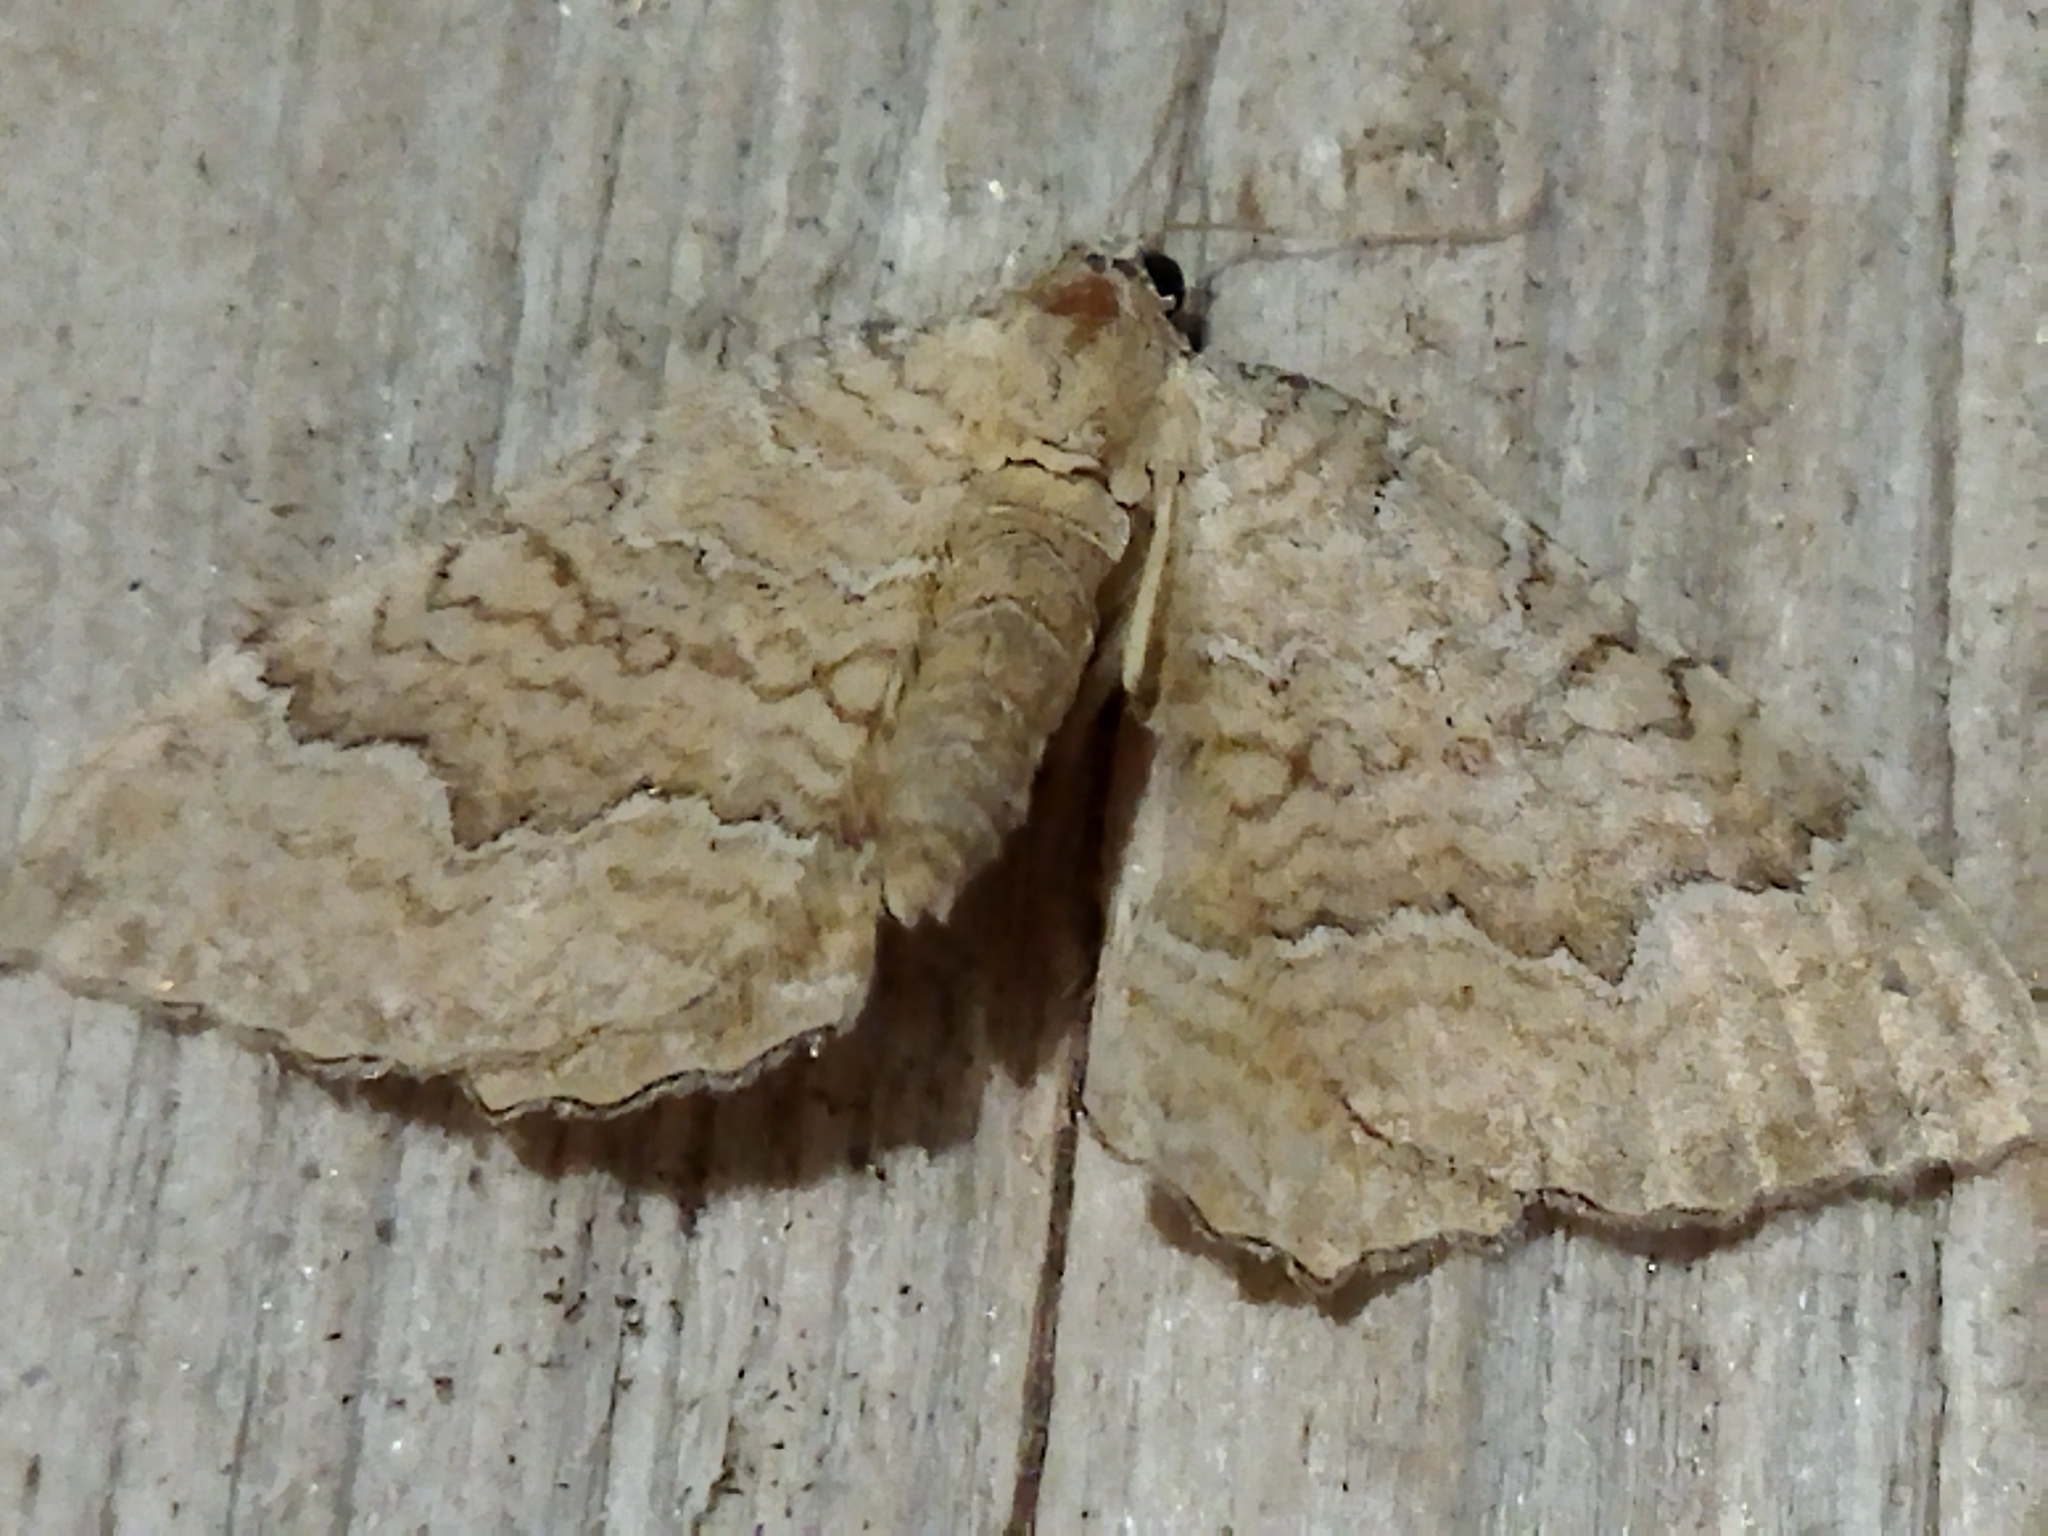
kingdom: Animalia
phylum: Arthropoda
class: Insecta
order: Lepidoptera
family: Geometridae
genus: Camptogramma
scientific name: Camptogramma bilineata
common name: Yellow shell
